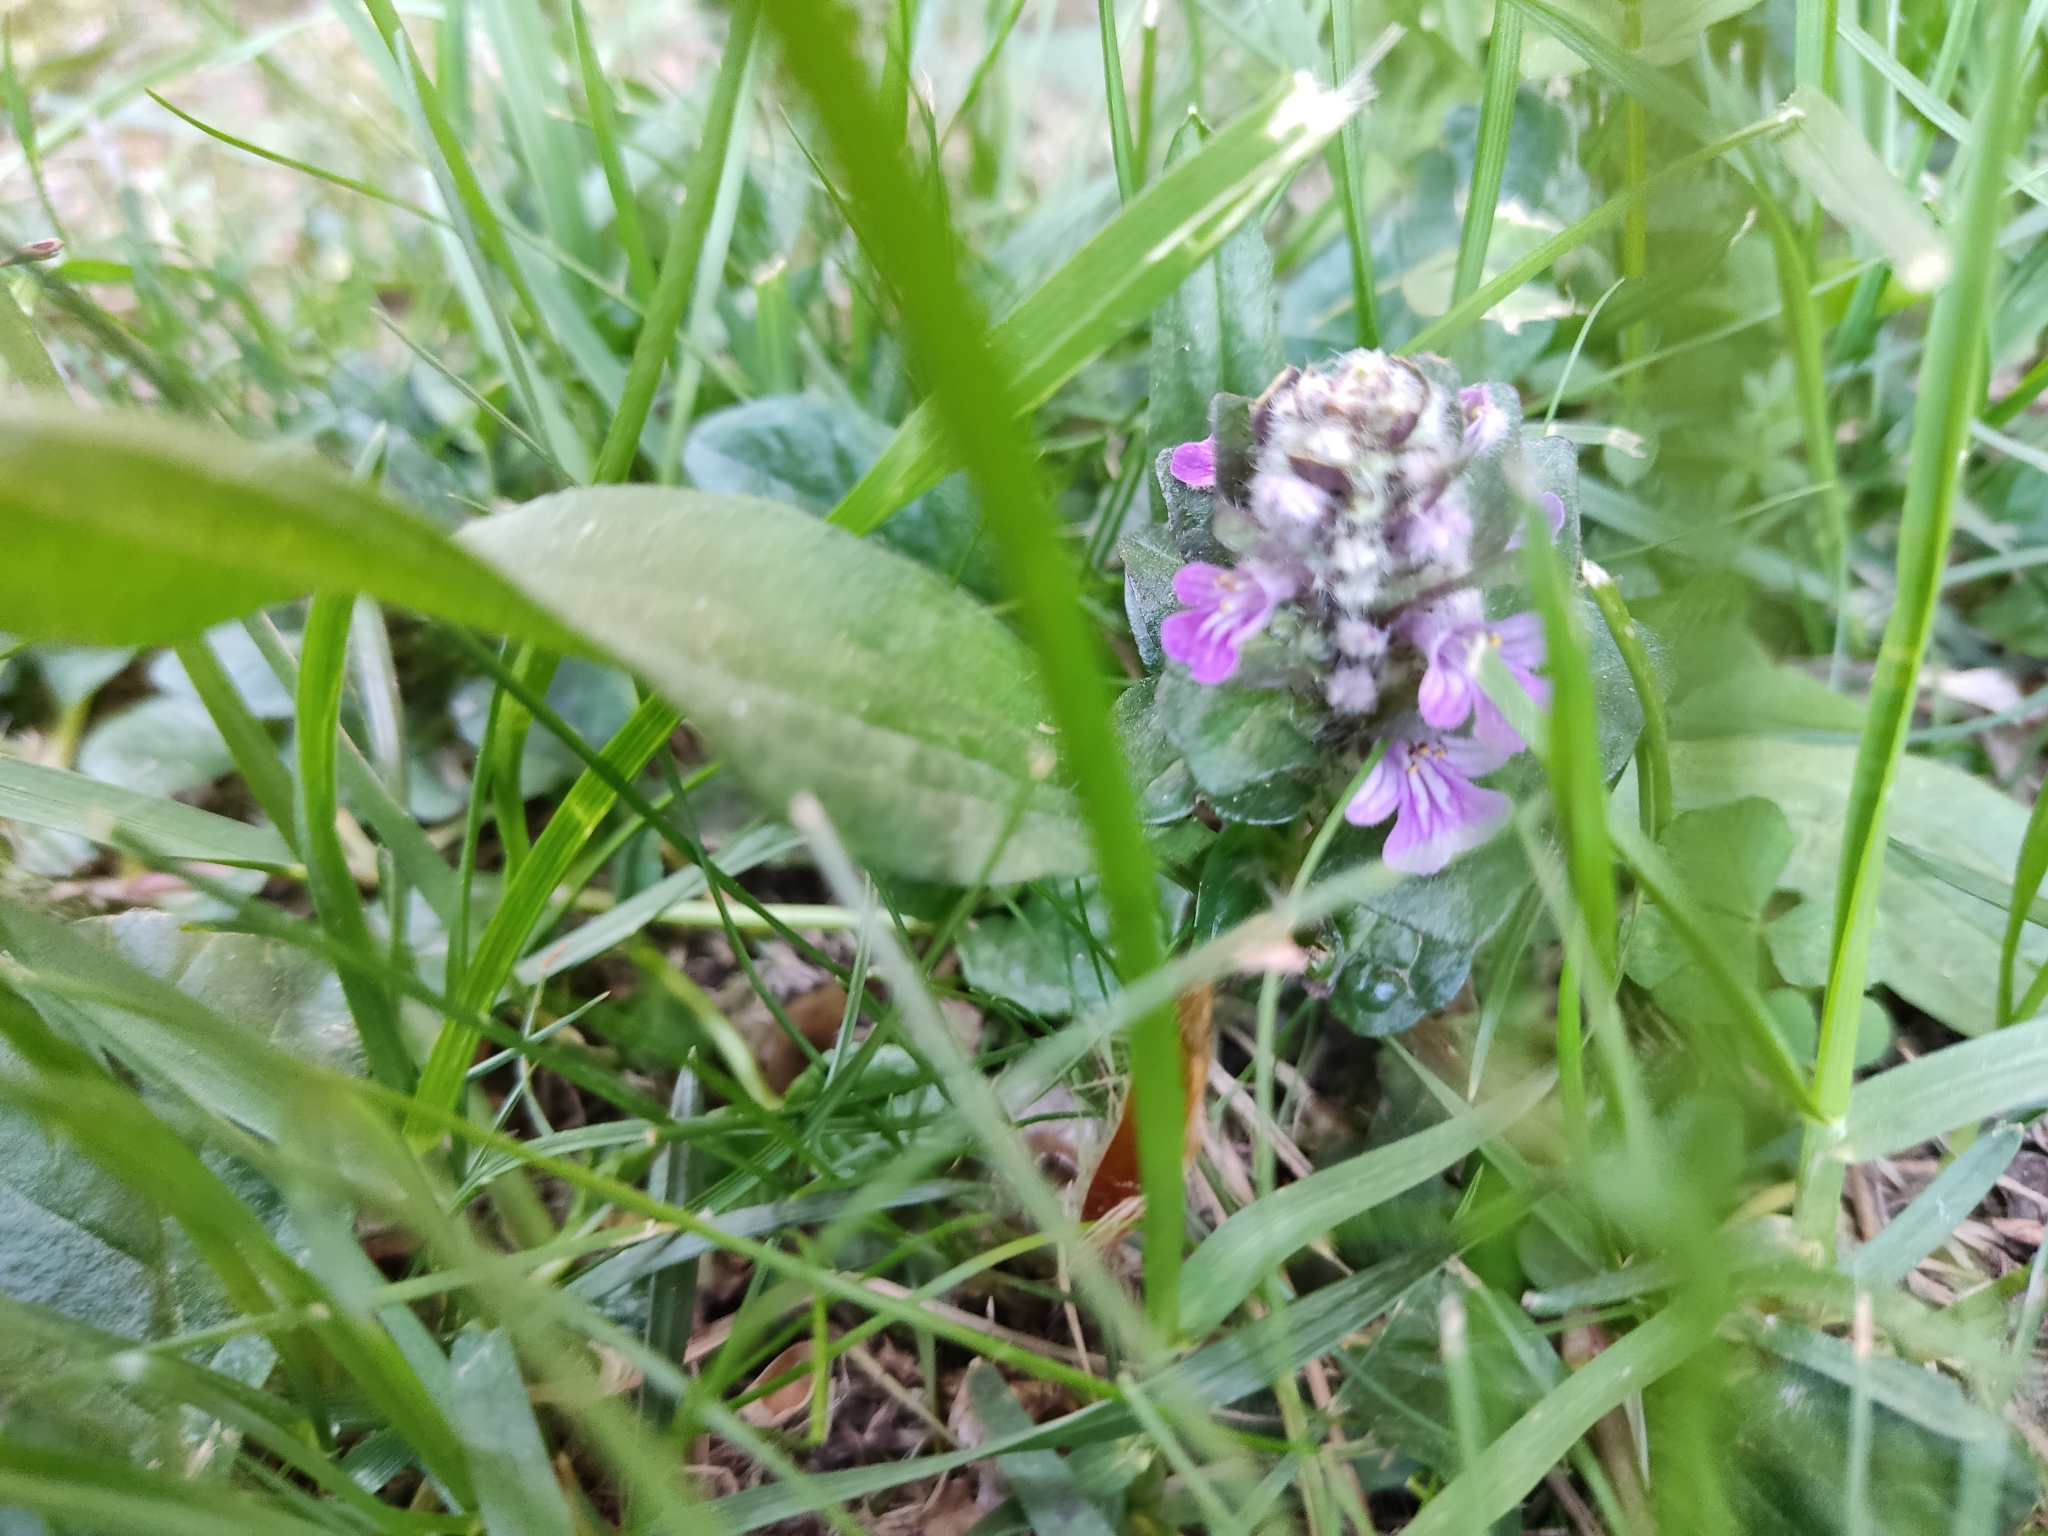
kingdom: Plantae
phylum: Tracheophyta
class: Magnoliopsida
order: Lamiales
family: Lamiaceae
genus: Ajuga
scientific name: Ajuga reptans
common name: Bugle
